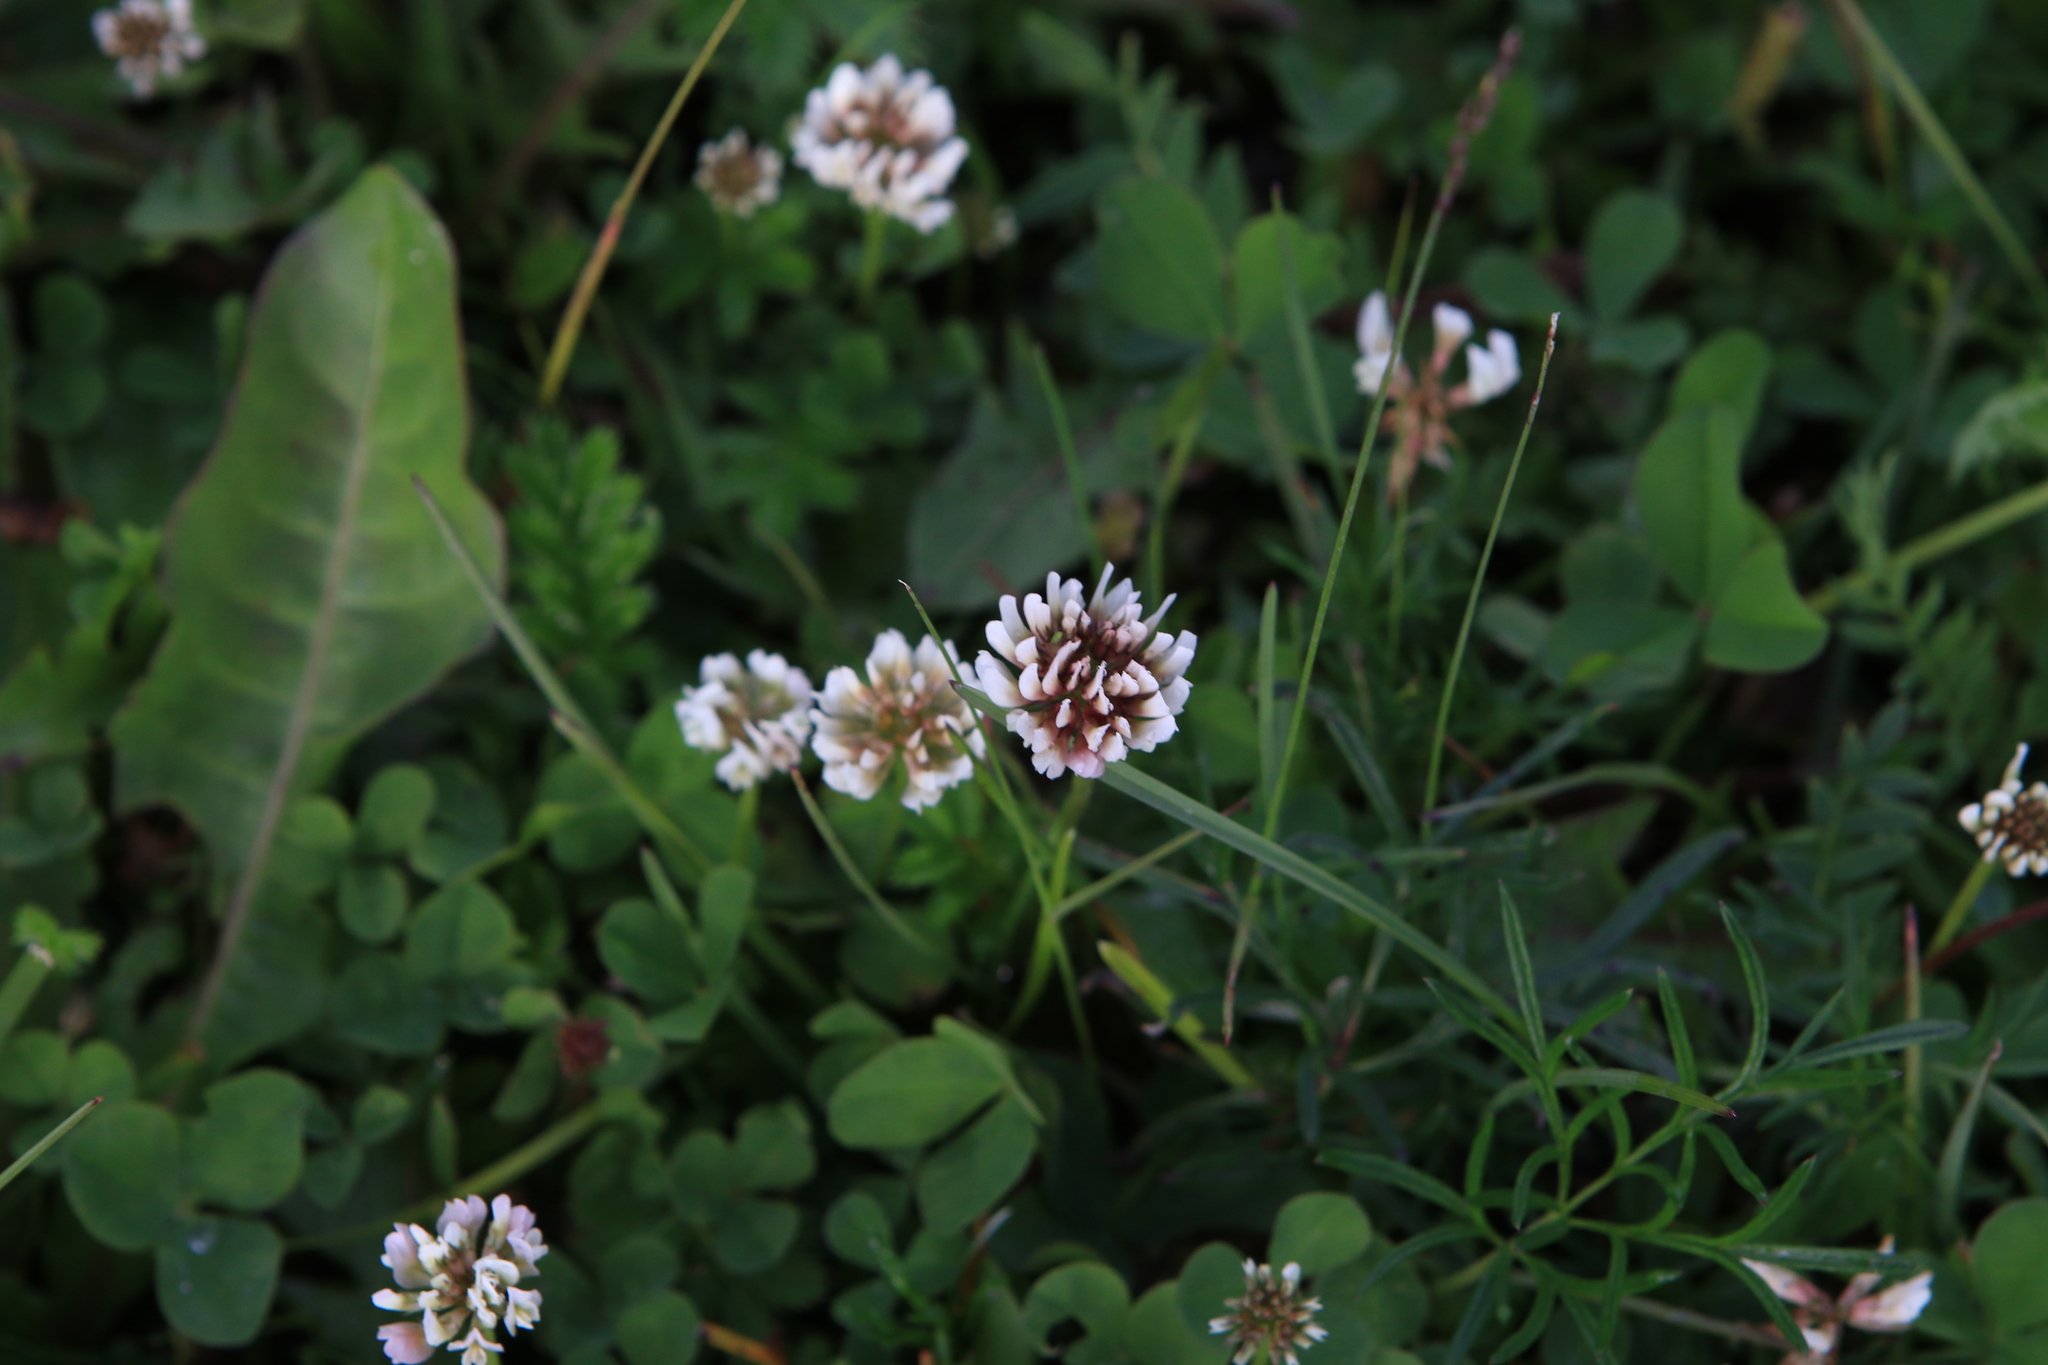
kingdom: Plantae
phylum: Tracheophyta
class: Magnoliopsida
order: Fabales
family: Fabaceae
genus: Trifolium
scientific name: Trifolium repens
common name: White clover
